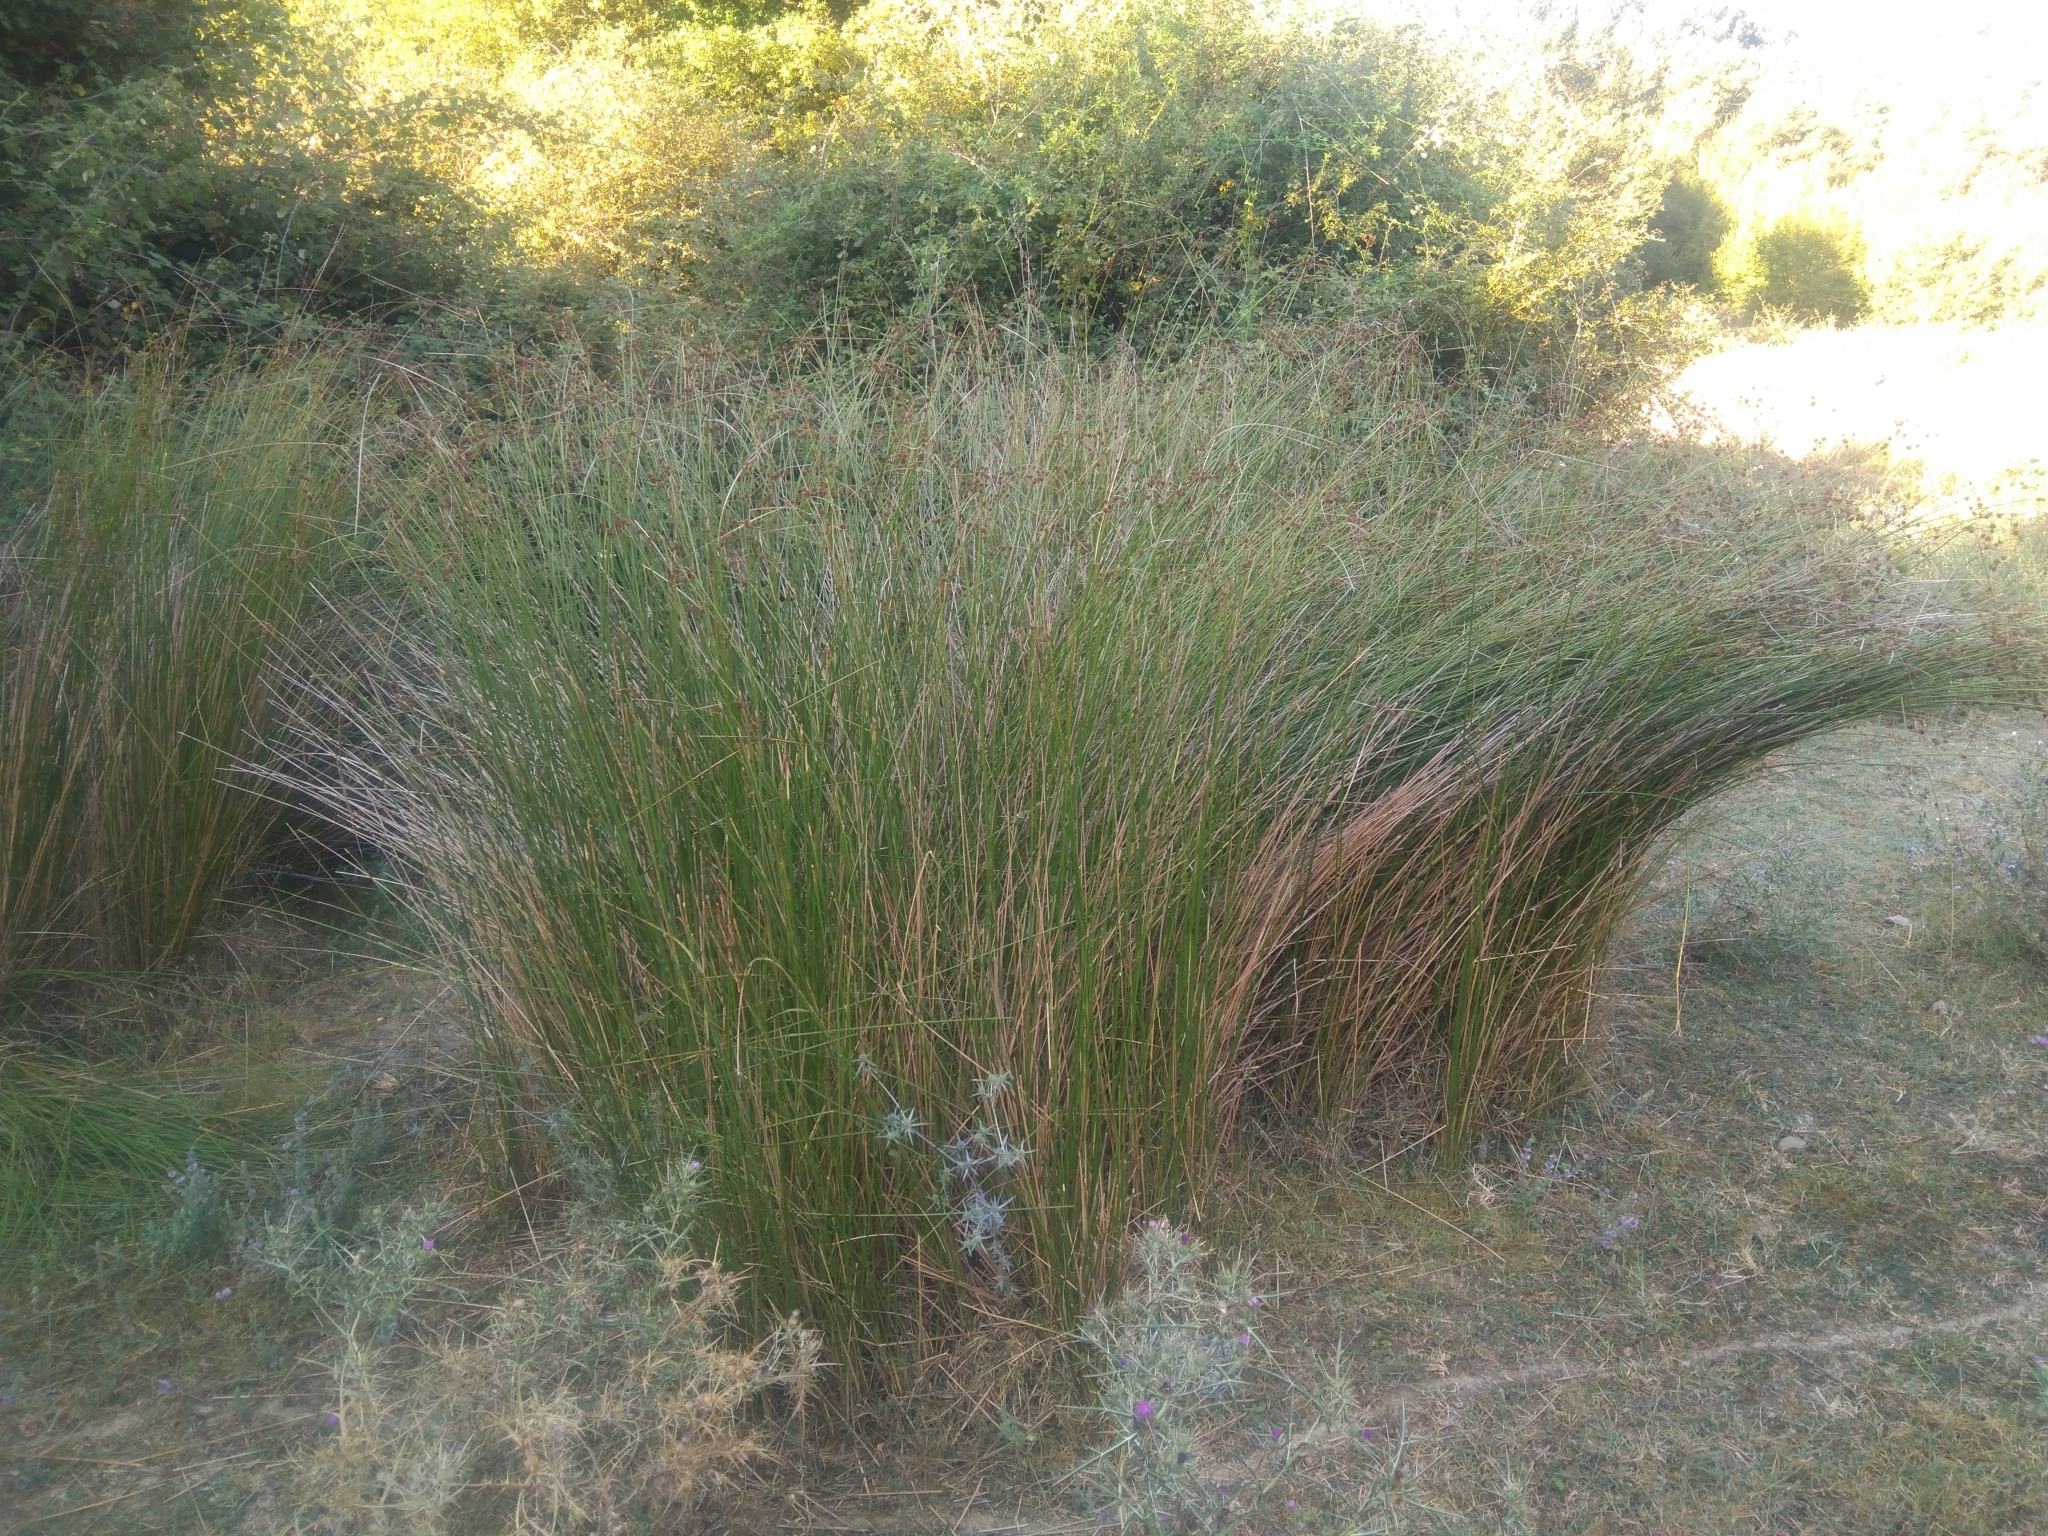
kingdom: Plantae
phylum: Tracheophyta
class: Liliopsida
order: Poales
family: Cyperaceae
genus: Scirpoides
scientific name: Scirpoides holoschoenus
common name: Round-headed club-rush
